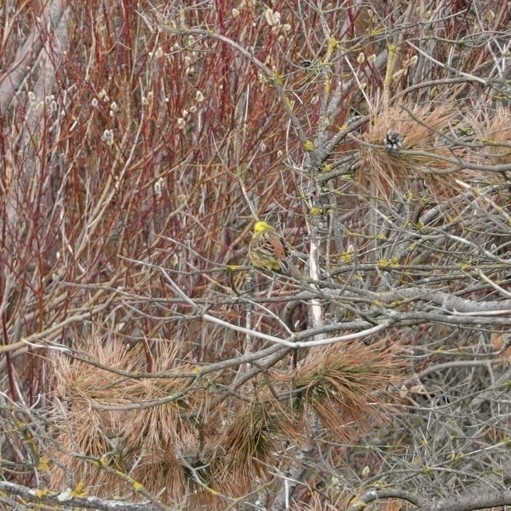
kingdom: Animalia
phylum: Chordata
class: Aves
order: Passeriformes
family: Emberizidae
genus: Emberiza
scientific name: Emberiza citrinella
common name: Yellowhammer
